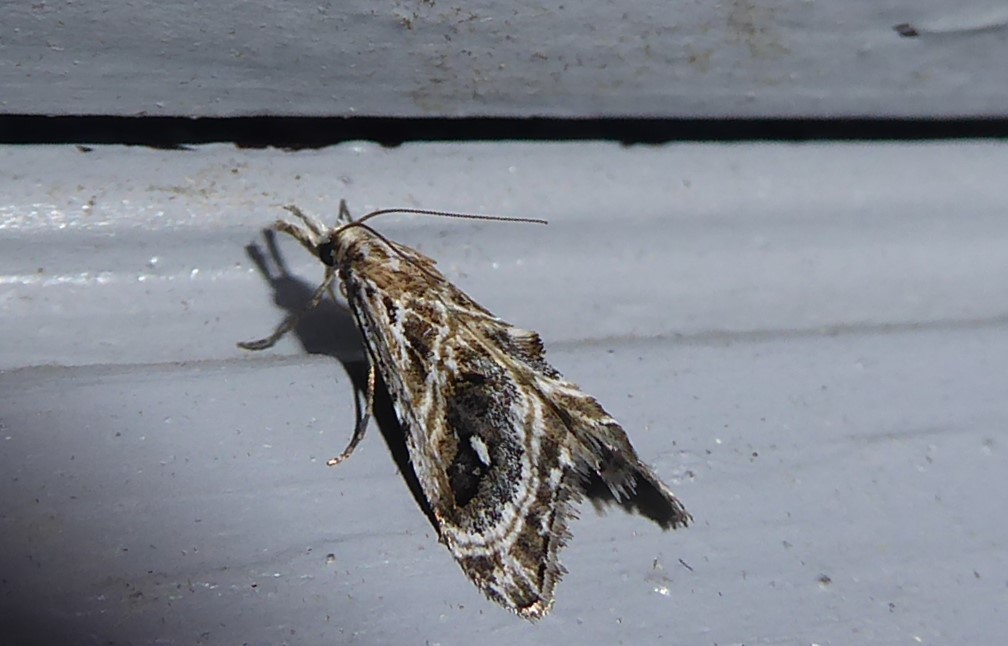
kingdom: Animalia
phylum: Arthropoda
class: Insecta
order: Lepidoptera
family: Crambidae
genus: Gadira
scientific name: Gadira acerella
